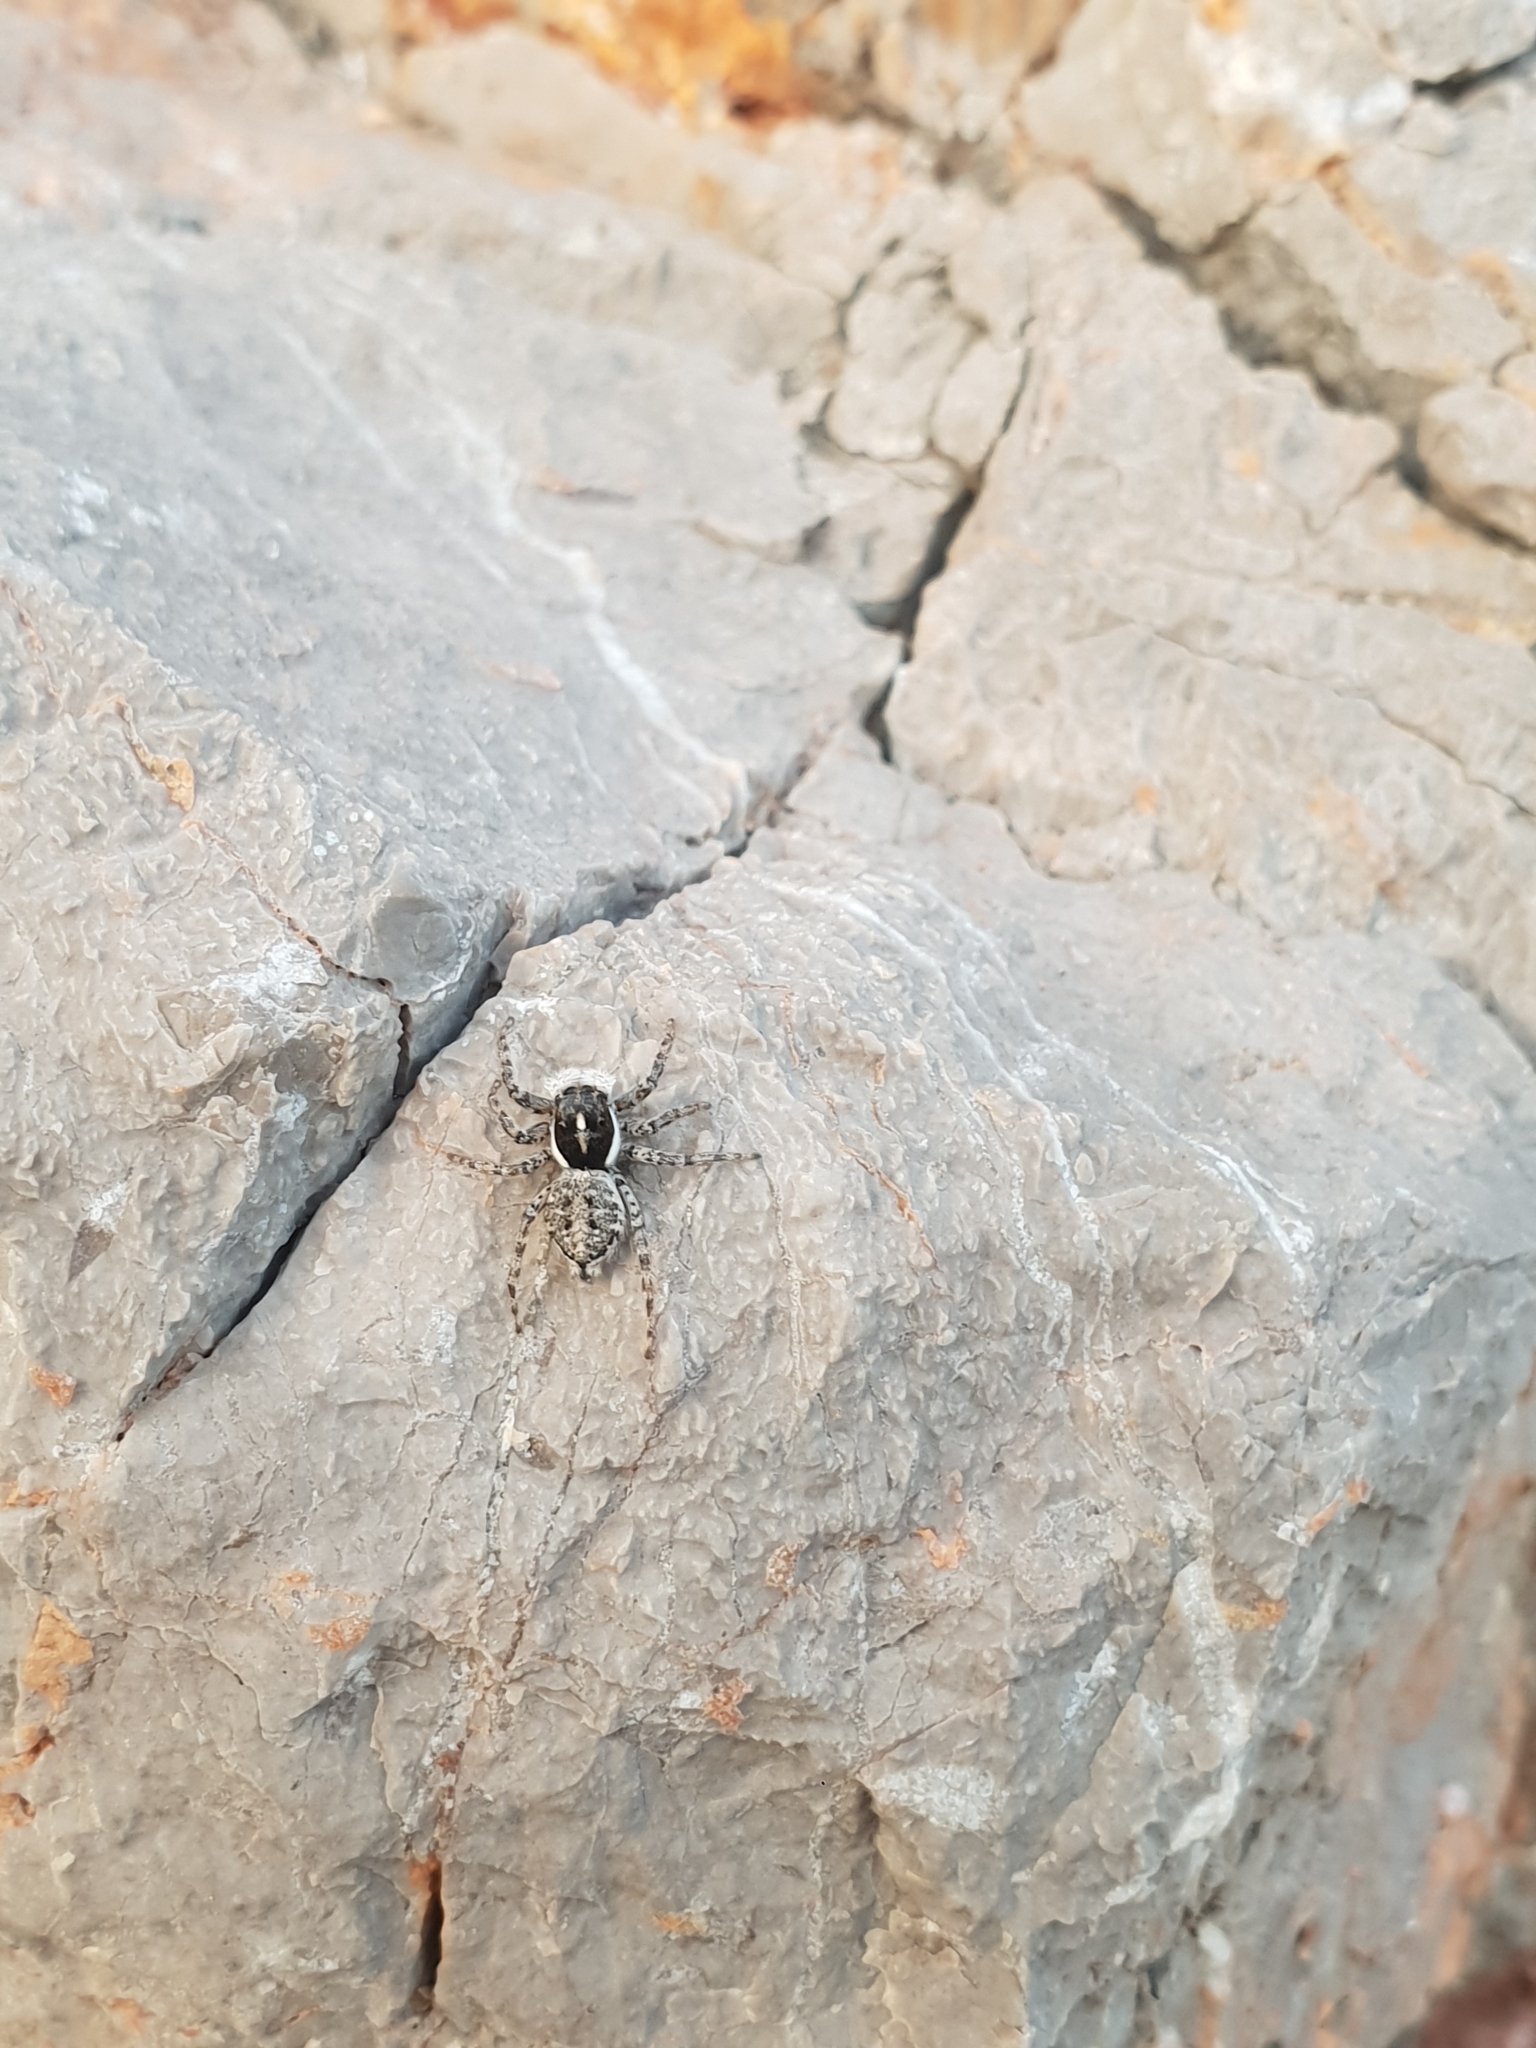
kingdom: Animalia
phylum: Arthropoda
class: Arachnida
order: Araneae
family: Salticidae
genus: Menemerus
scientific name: Menemerus semilimbatus
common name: Jumping spider
